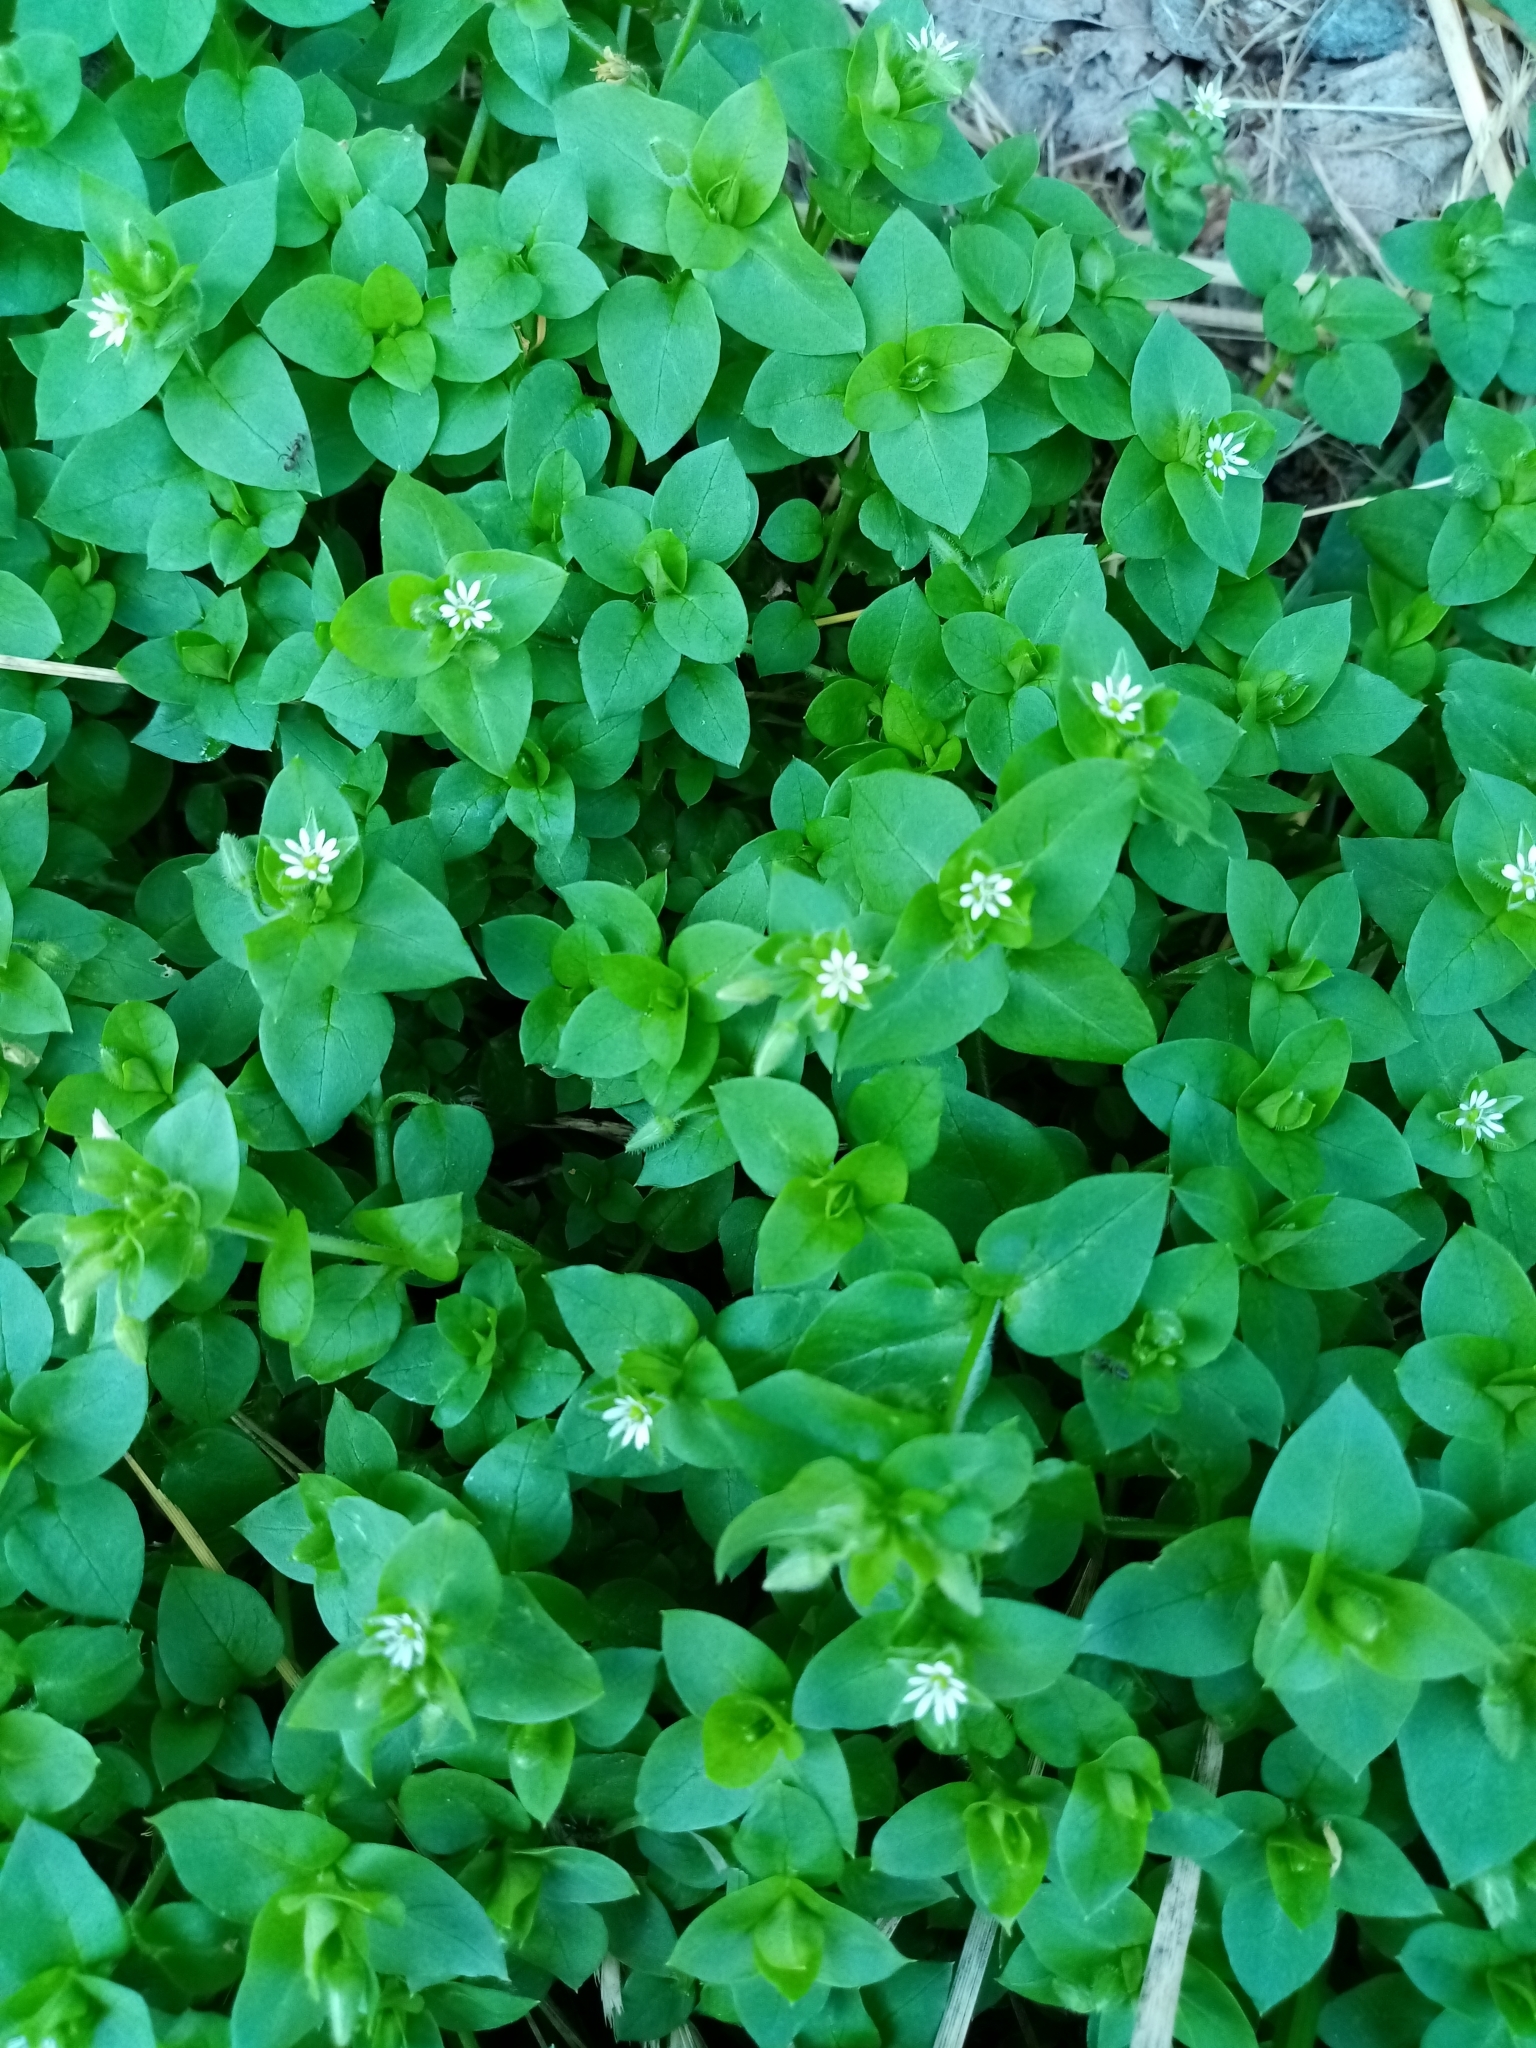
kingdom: Plantae
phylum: Tracheophyta
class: Magnoliopsida
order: Caryophyllales
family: Caryophyllaceae
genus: Stellaria
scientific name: Stellaria media
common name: Common chickweed
